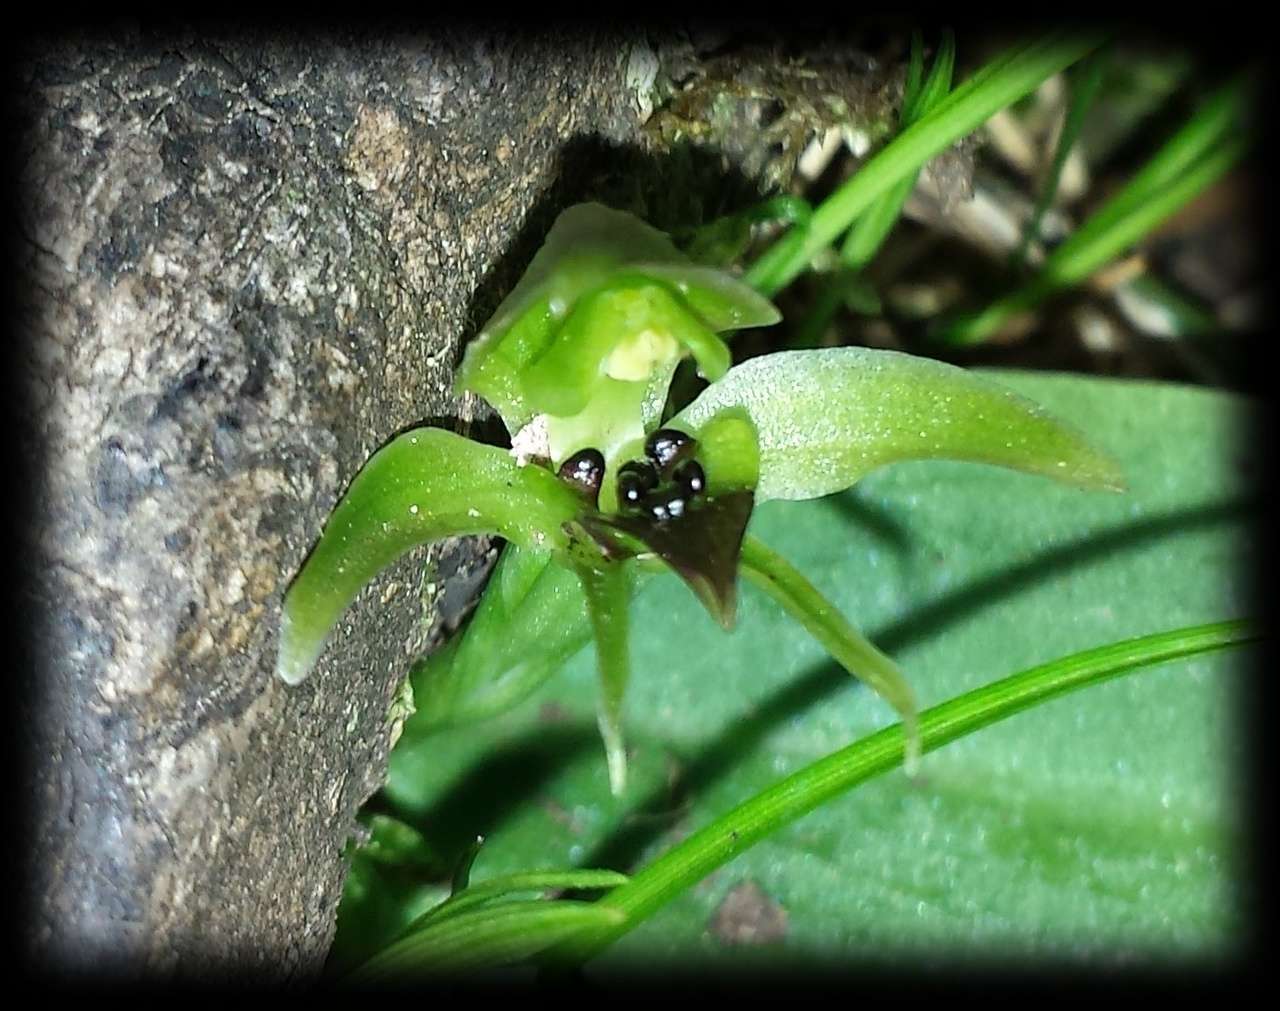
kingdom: Plantae
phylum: Tracheophyta
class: Liliopsida
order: Asparagales
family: Orchidaceae
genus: Chiloglottis
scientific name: Chiloglottis cornuta
